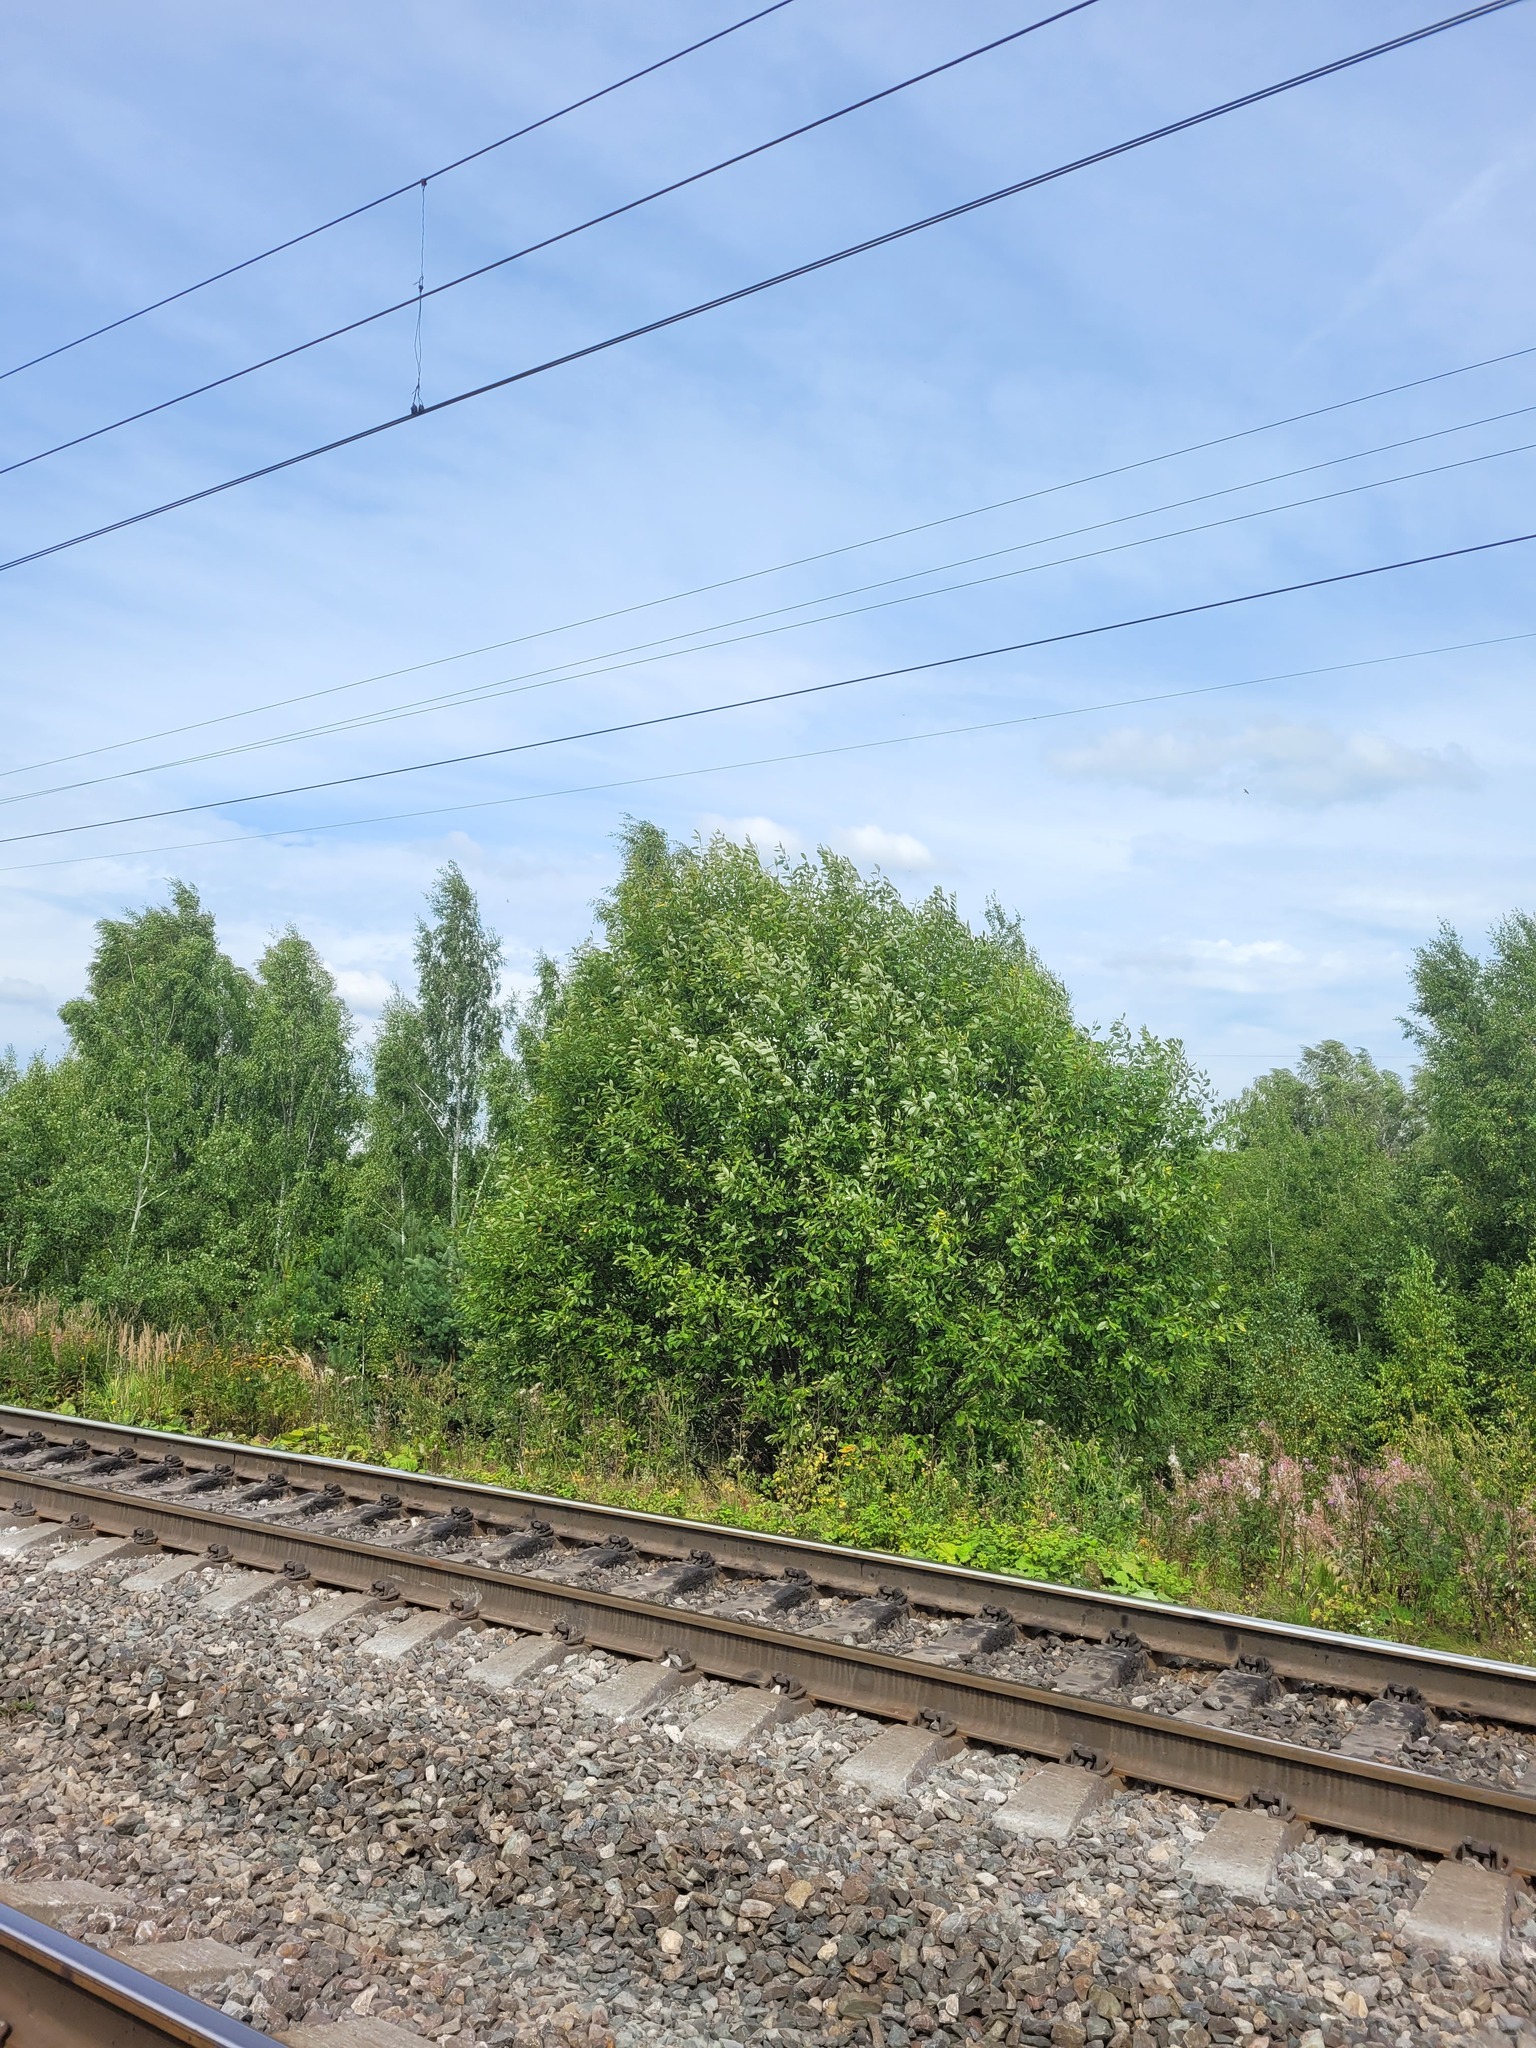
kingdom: Plantae
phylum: Tracheophyta
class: Magnoliopsida
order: Malpighiales
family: Salicaceae
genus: Salix
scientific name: Salix caprea
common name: Goat willow
